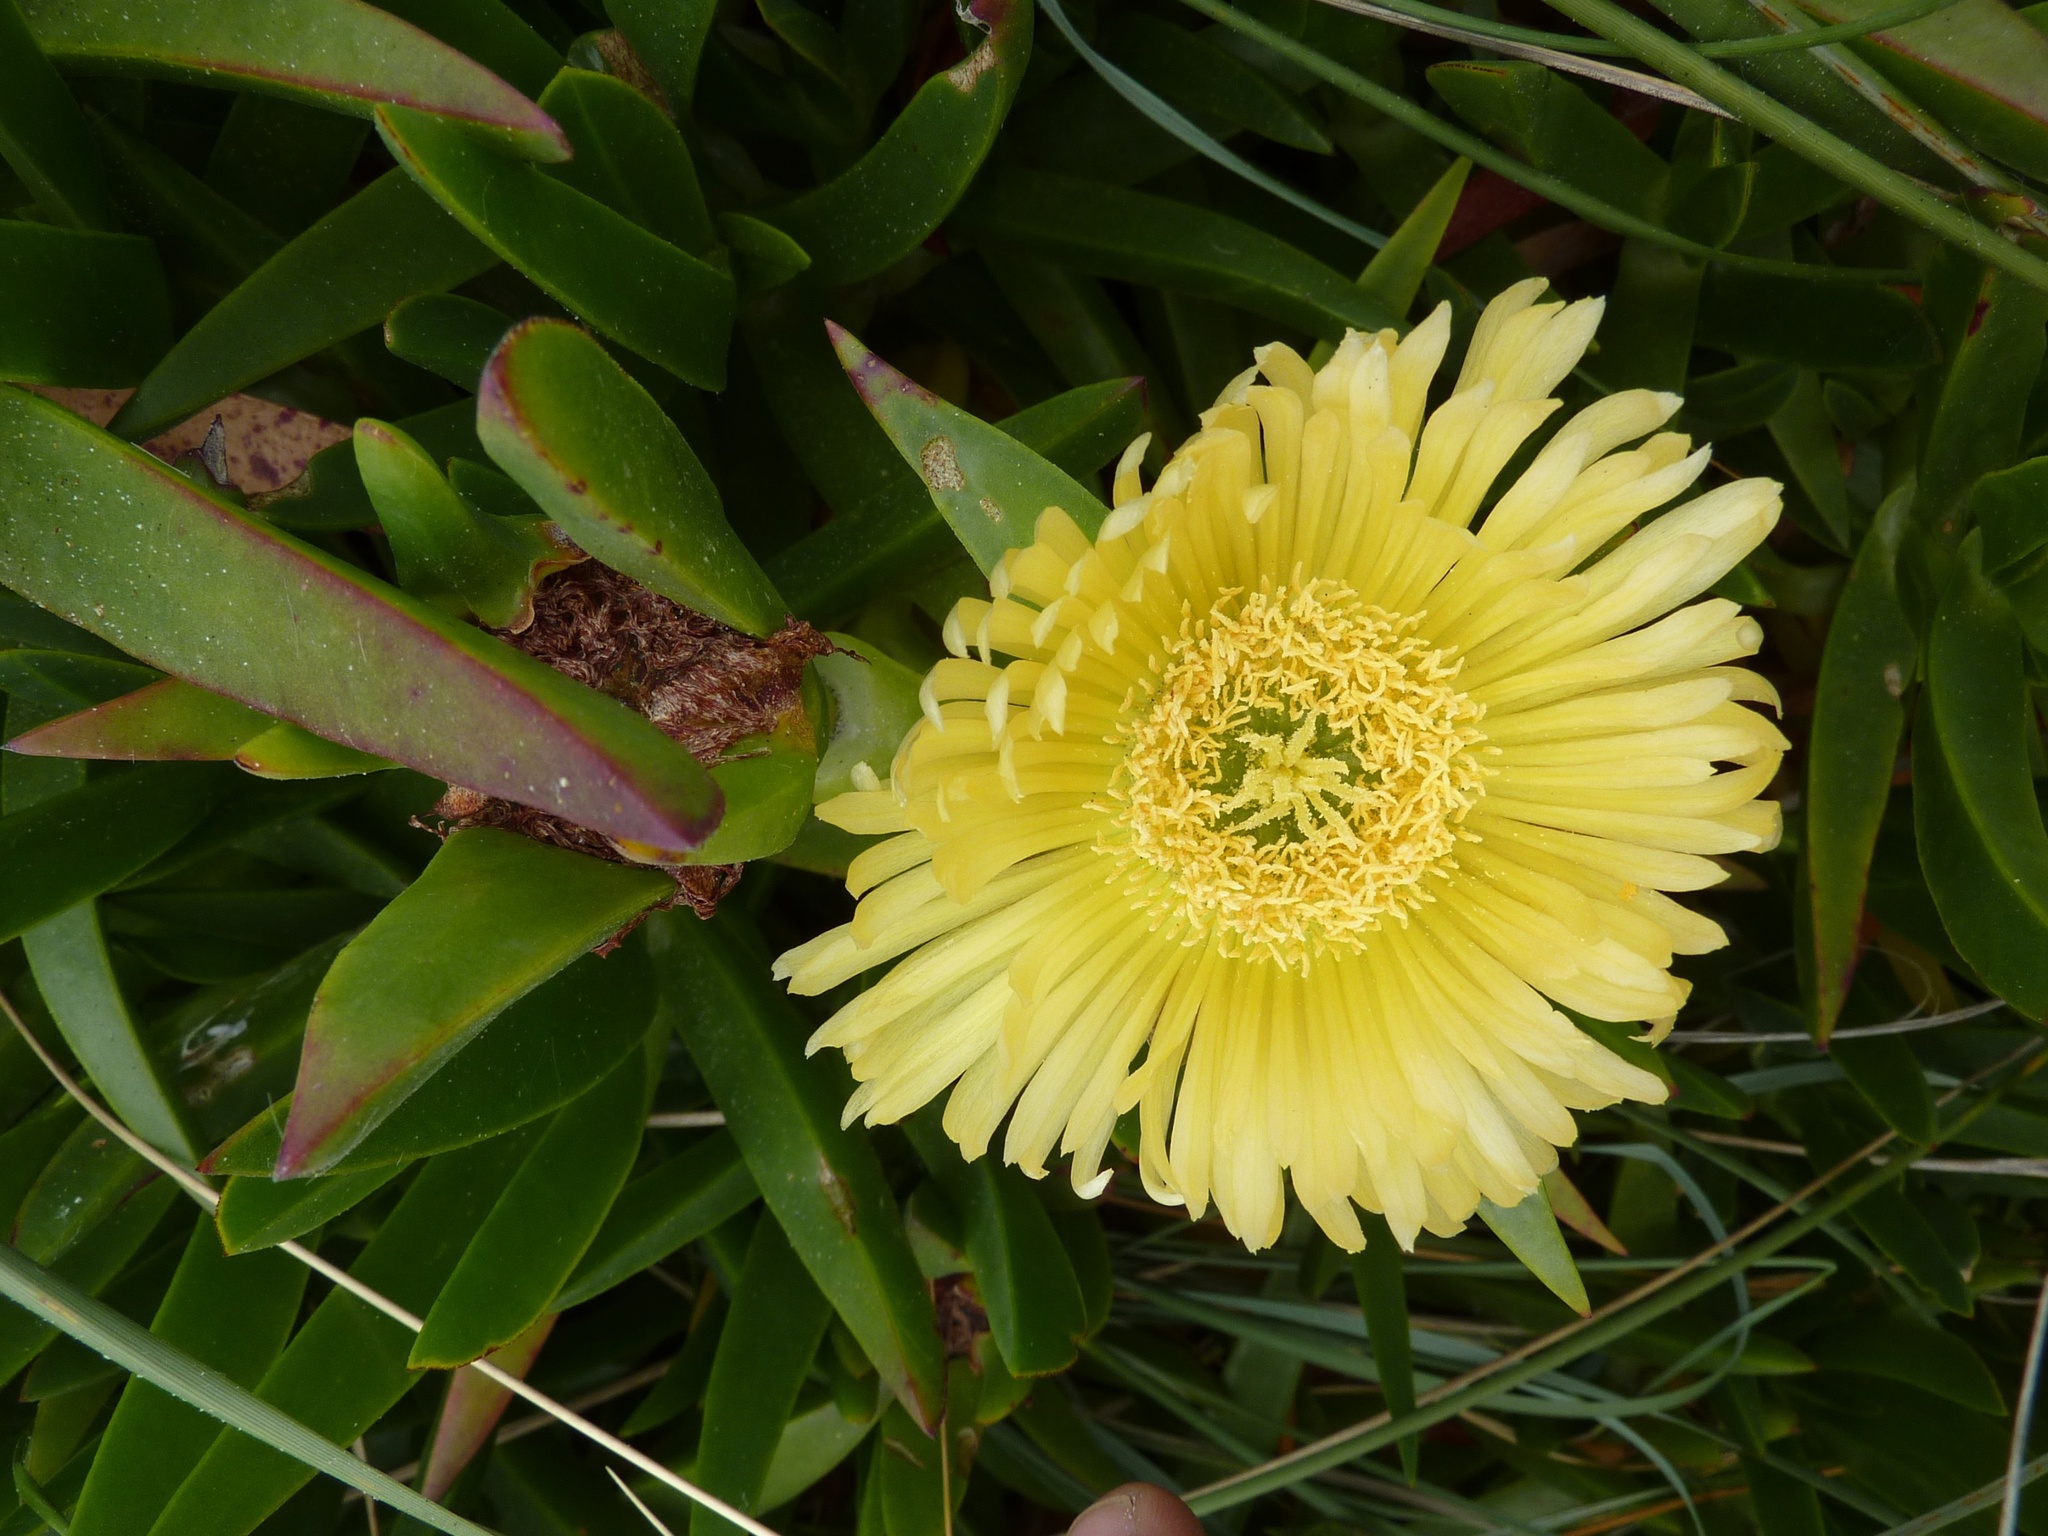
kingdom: Plantae
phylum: Tracheophyta
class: Magnoliopsida
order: Caryophyllales
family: Aizoaceae
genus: Carpobrotus
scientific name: Carpobrotus edulis
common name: Hottentot-fig
